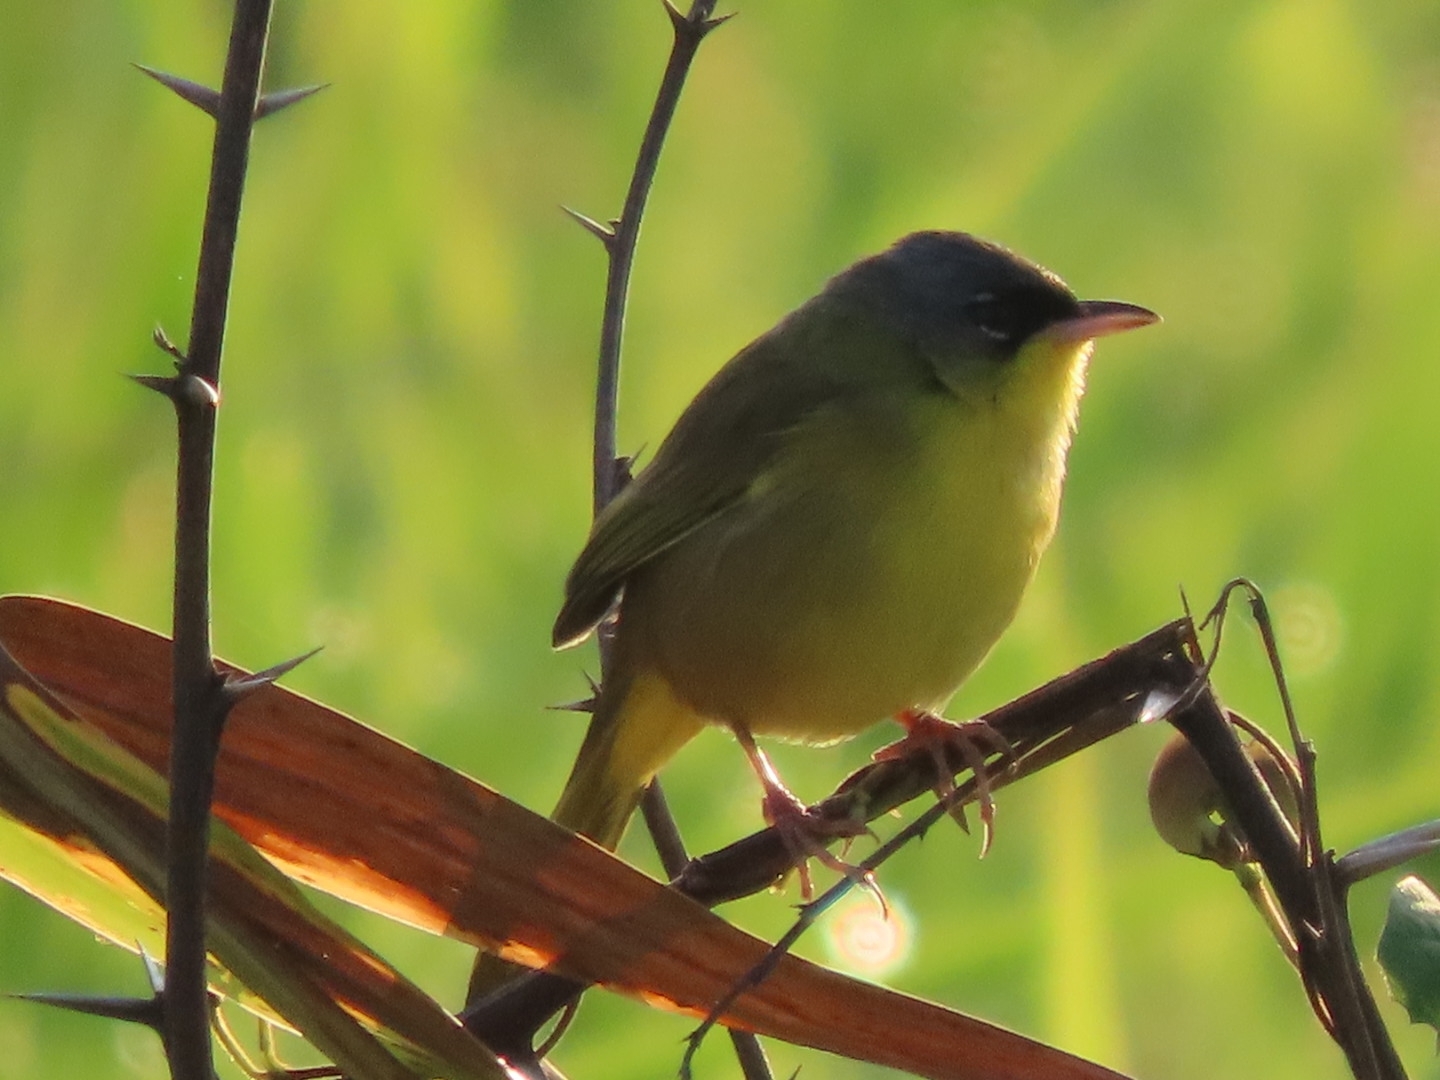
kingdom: Animalia
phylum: Chordata
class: Aves
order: Passeriformes
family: Parulidae
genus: Geothlypis
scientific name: Geothlypis poliocephala
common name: Gray-crowned yellowthroat
